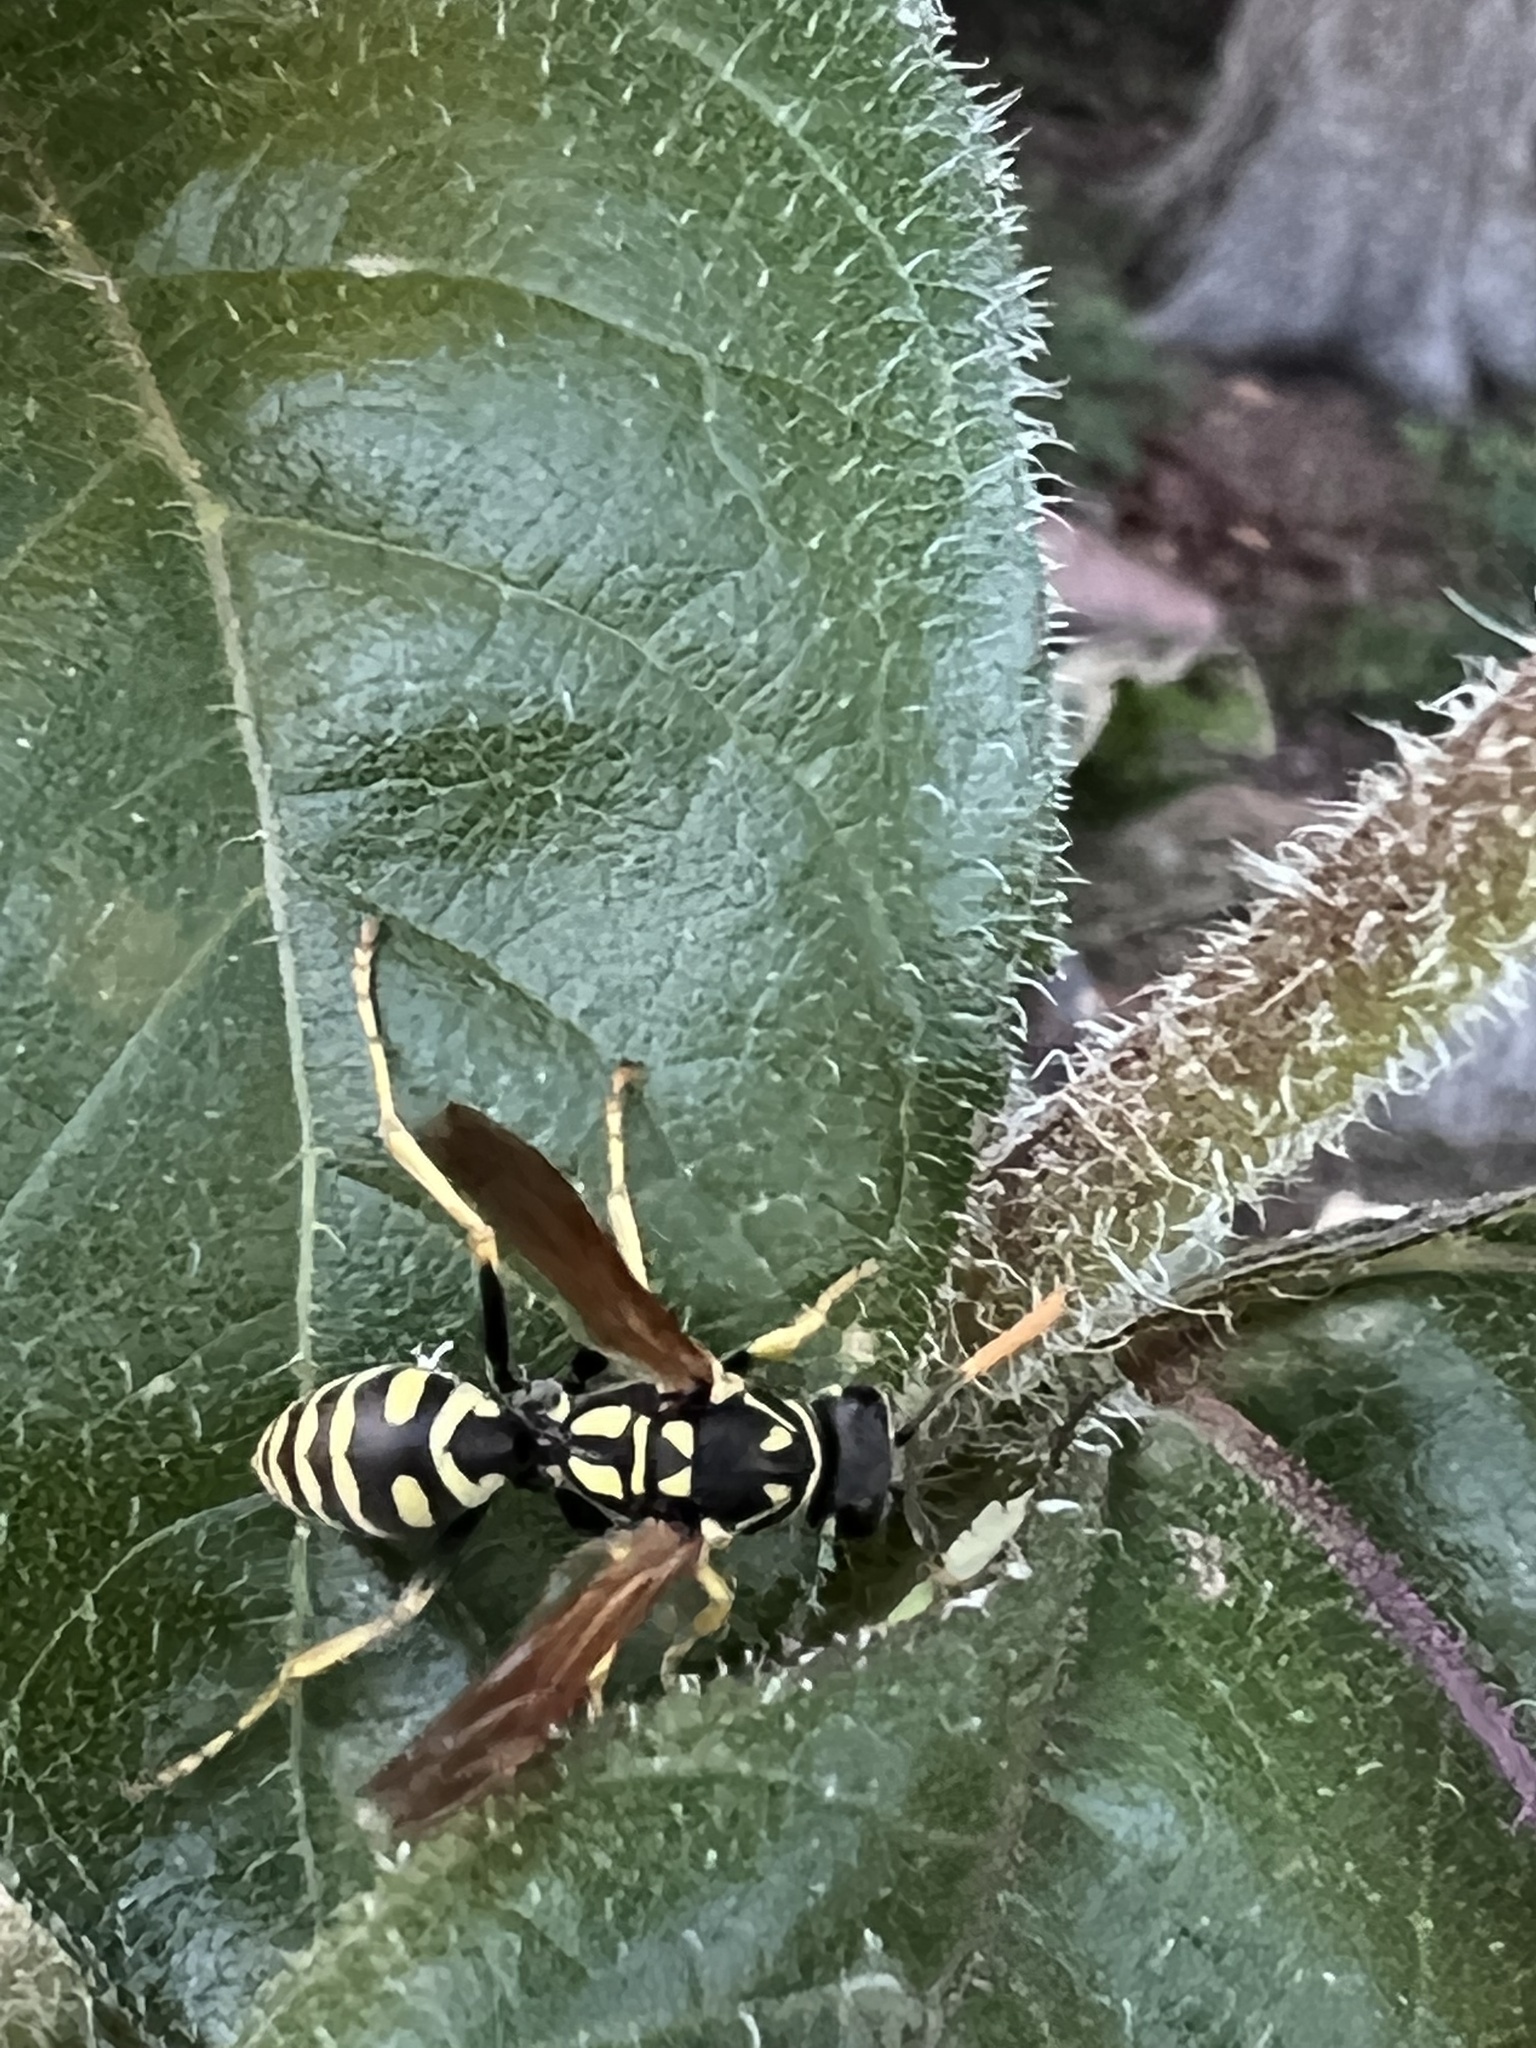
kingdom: Animalia
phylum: Arthropoda
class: Insecta
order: Hymenoptera
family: Eumenidae
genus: Polistes
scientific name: Polistes dominula
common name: Paper wasp
